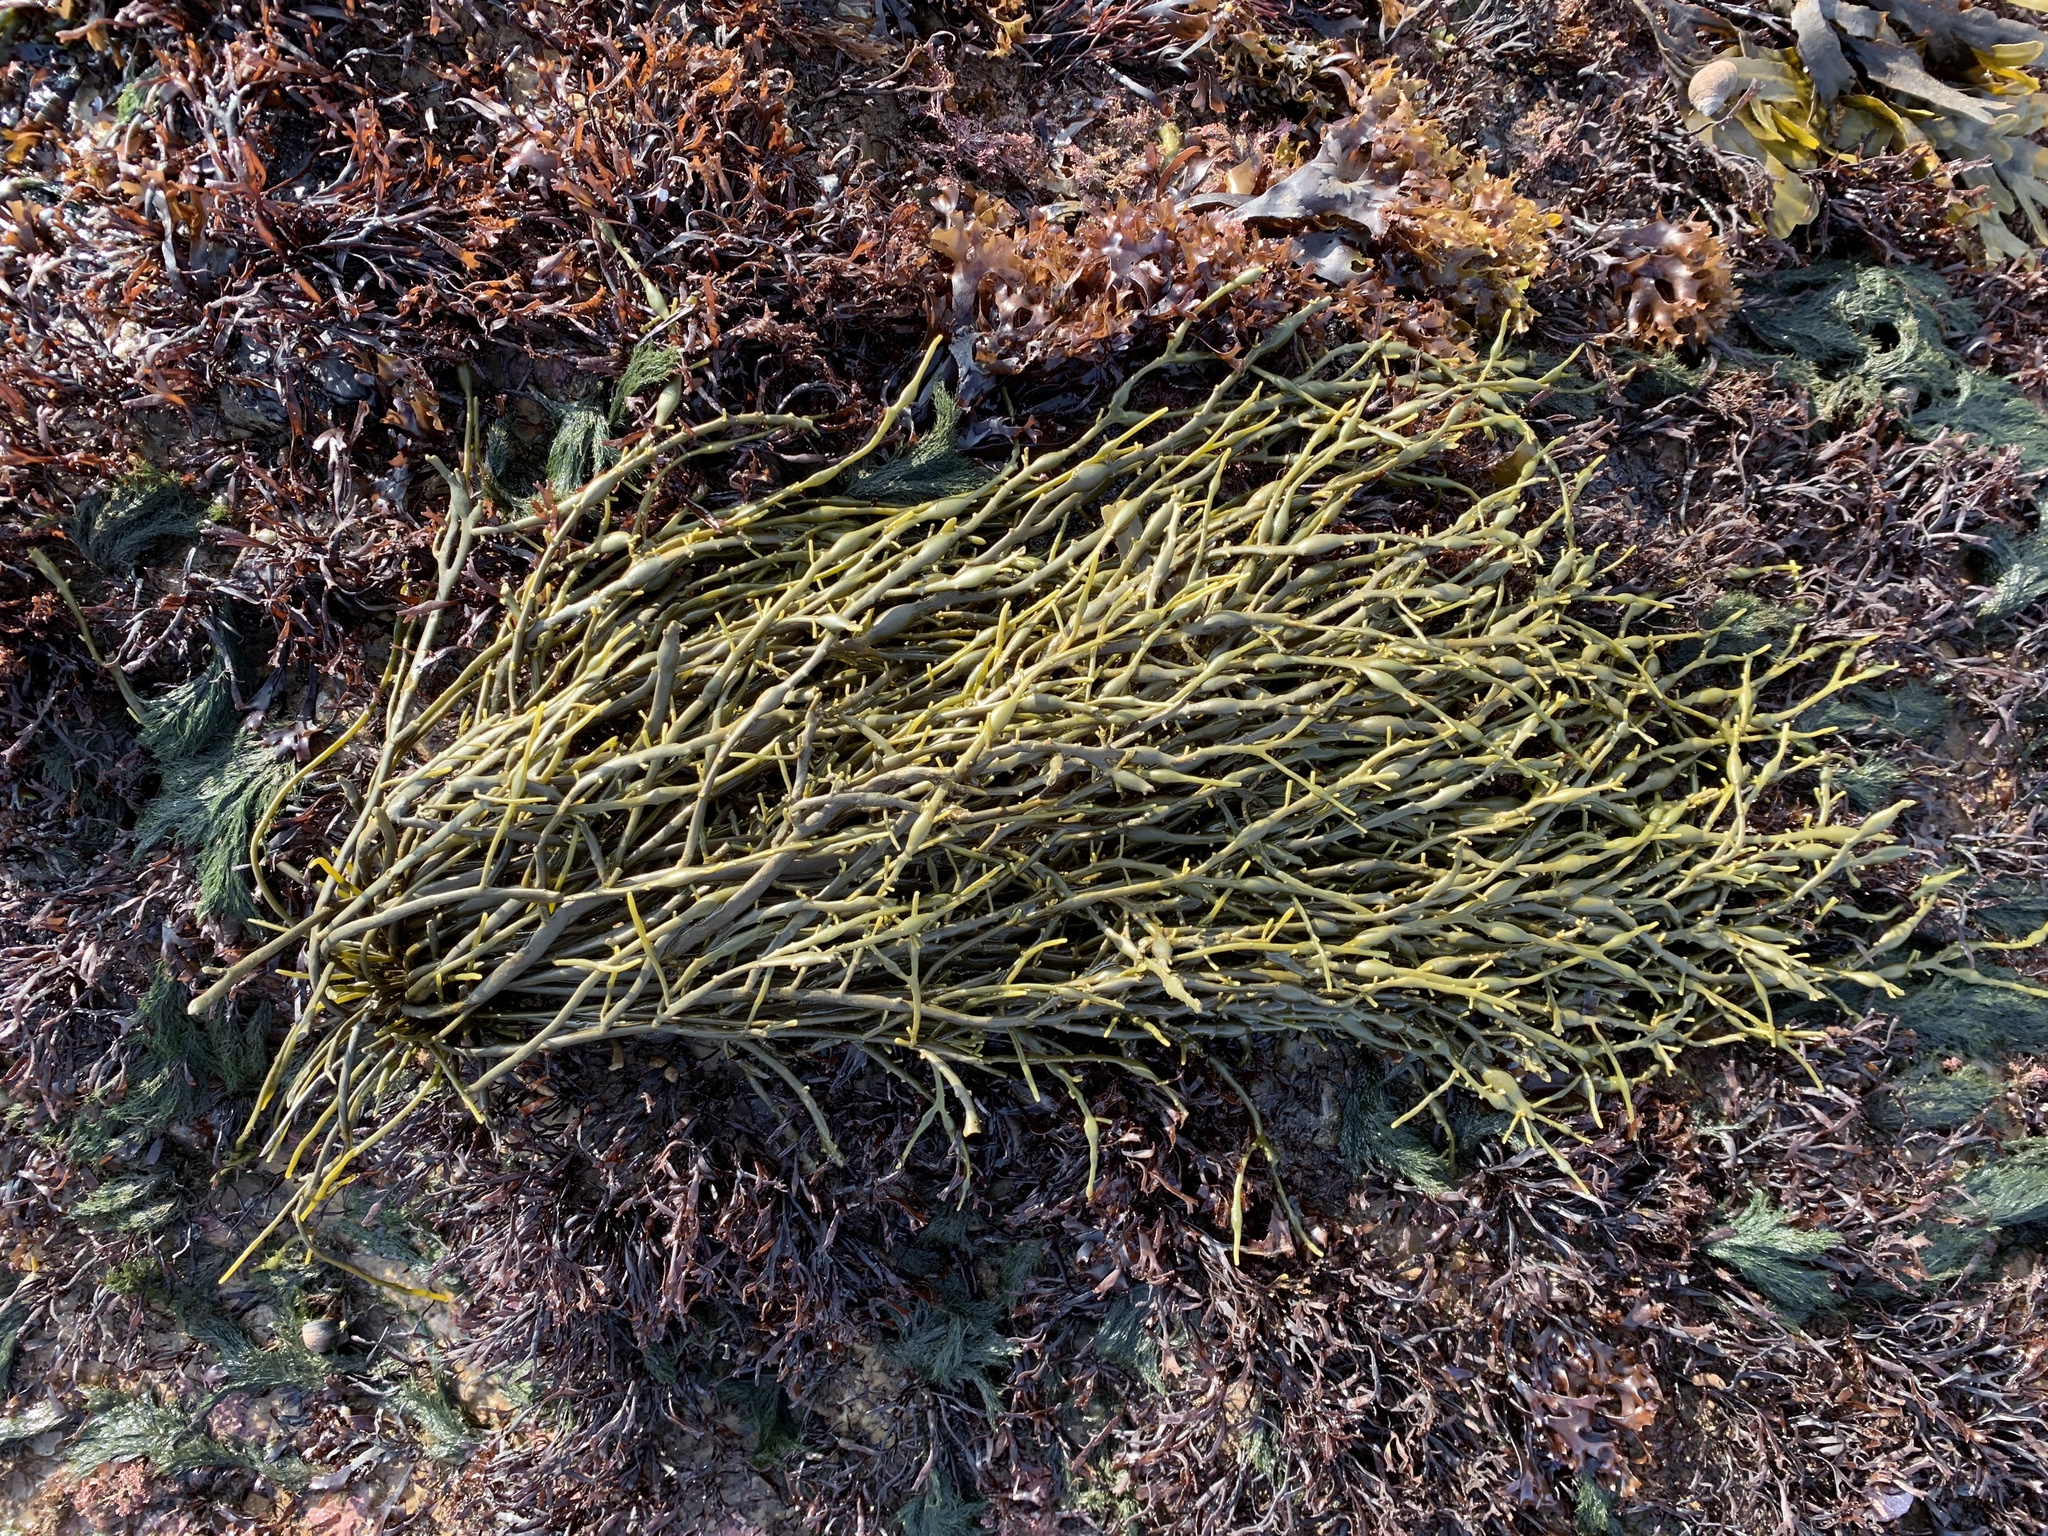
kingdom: Chromista
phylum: Ochrophyta
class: Phaeophyceae
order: Fucales
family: Fucaceae
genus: Ascophyllum
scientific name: Ascophyllum nodosum
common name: Knotted wrack
